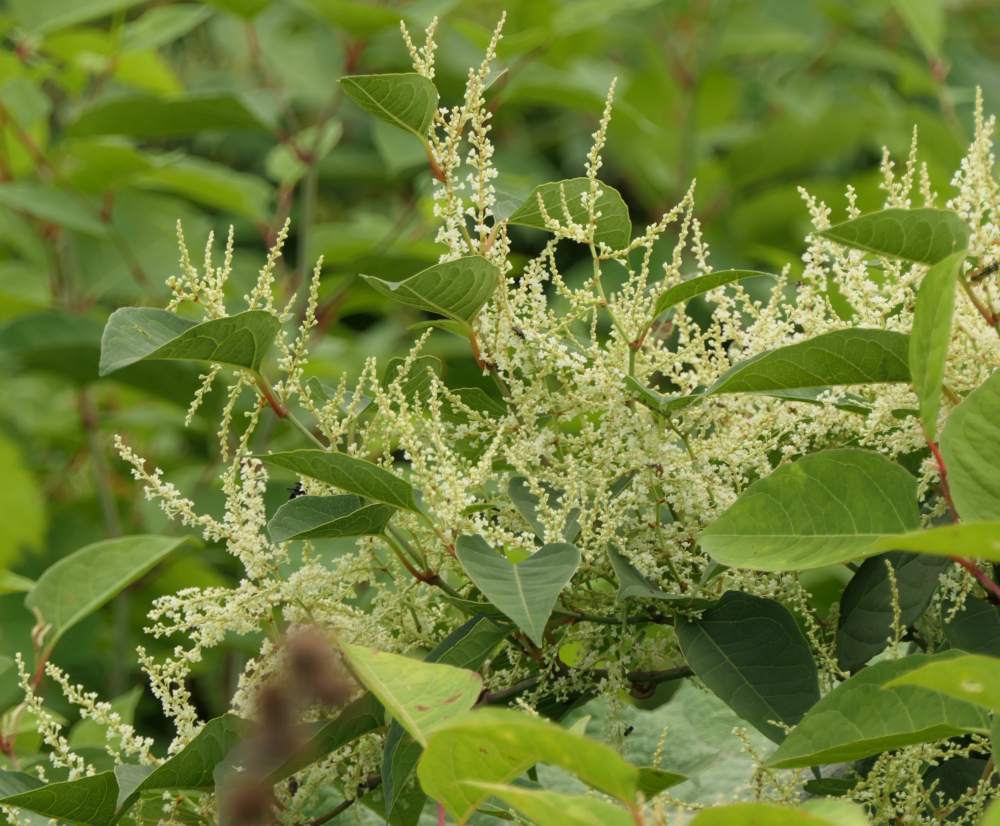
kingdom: Plantae
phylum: Tracheophyta
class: Magnoliopsida
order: Caryophyllales
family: Polygonaceae
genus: Reynoutria
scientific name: Reynoutria japonica
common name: Japanese knotweed
